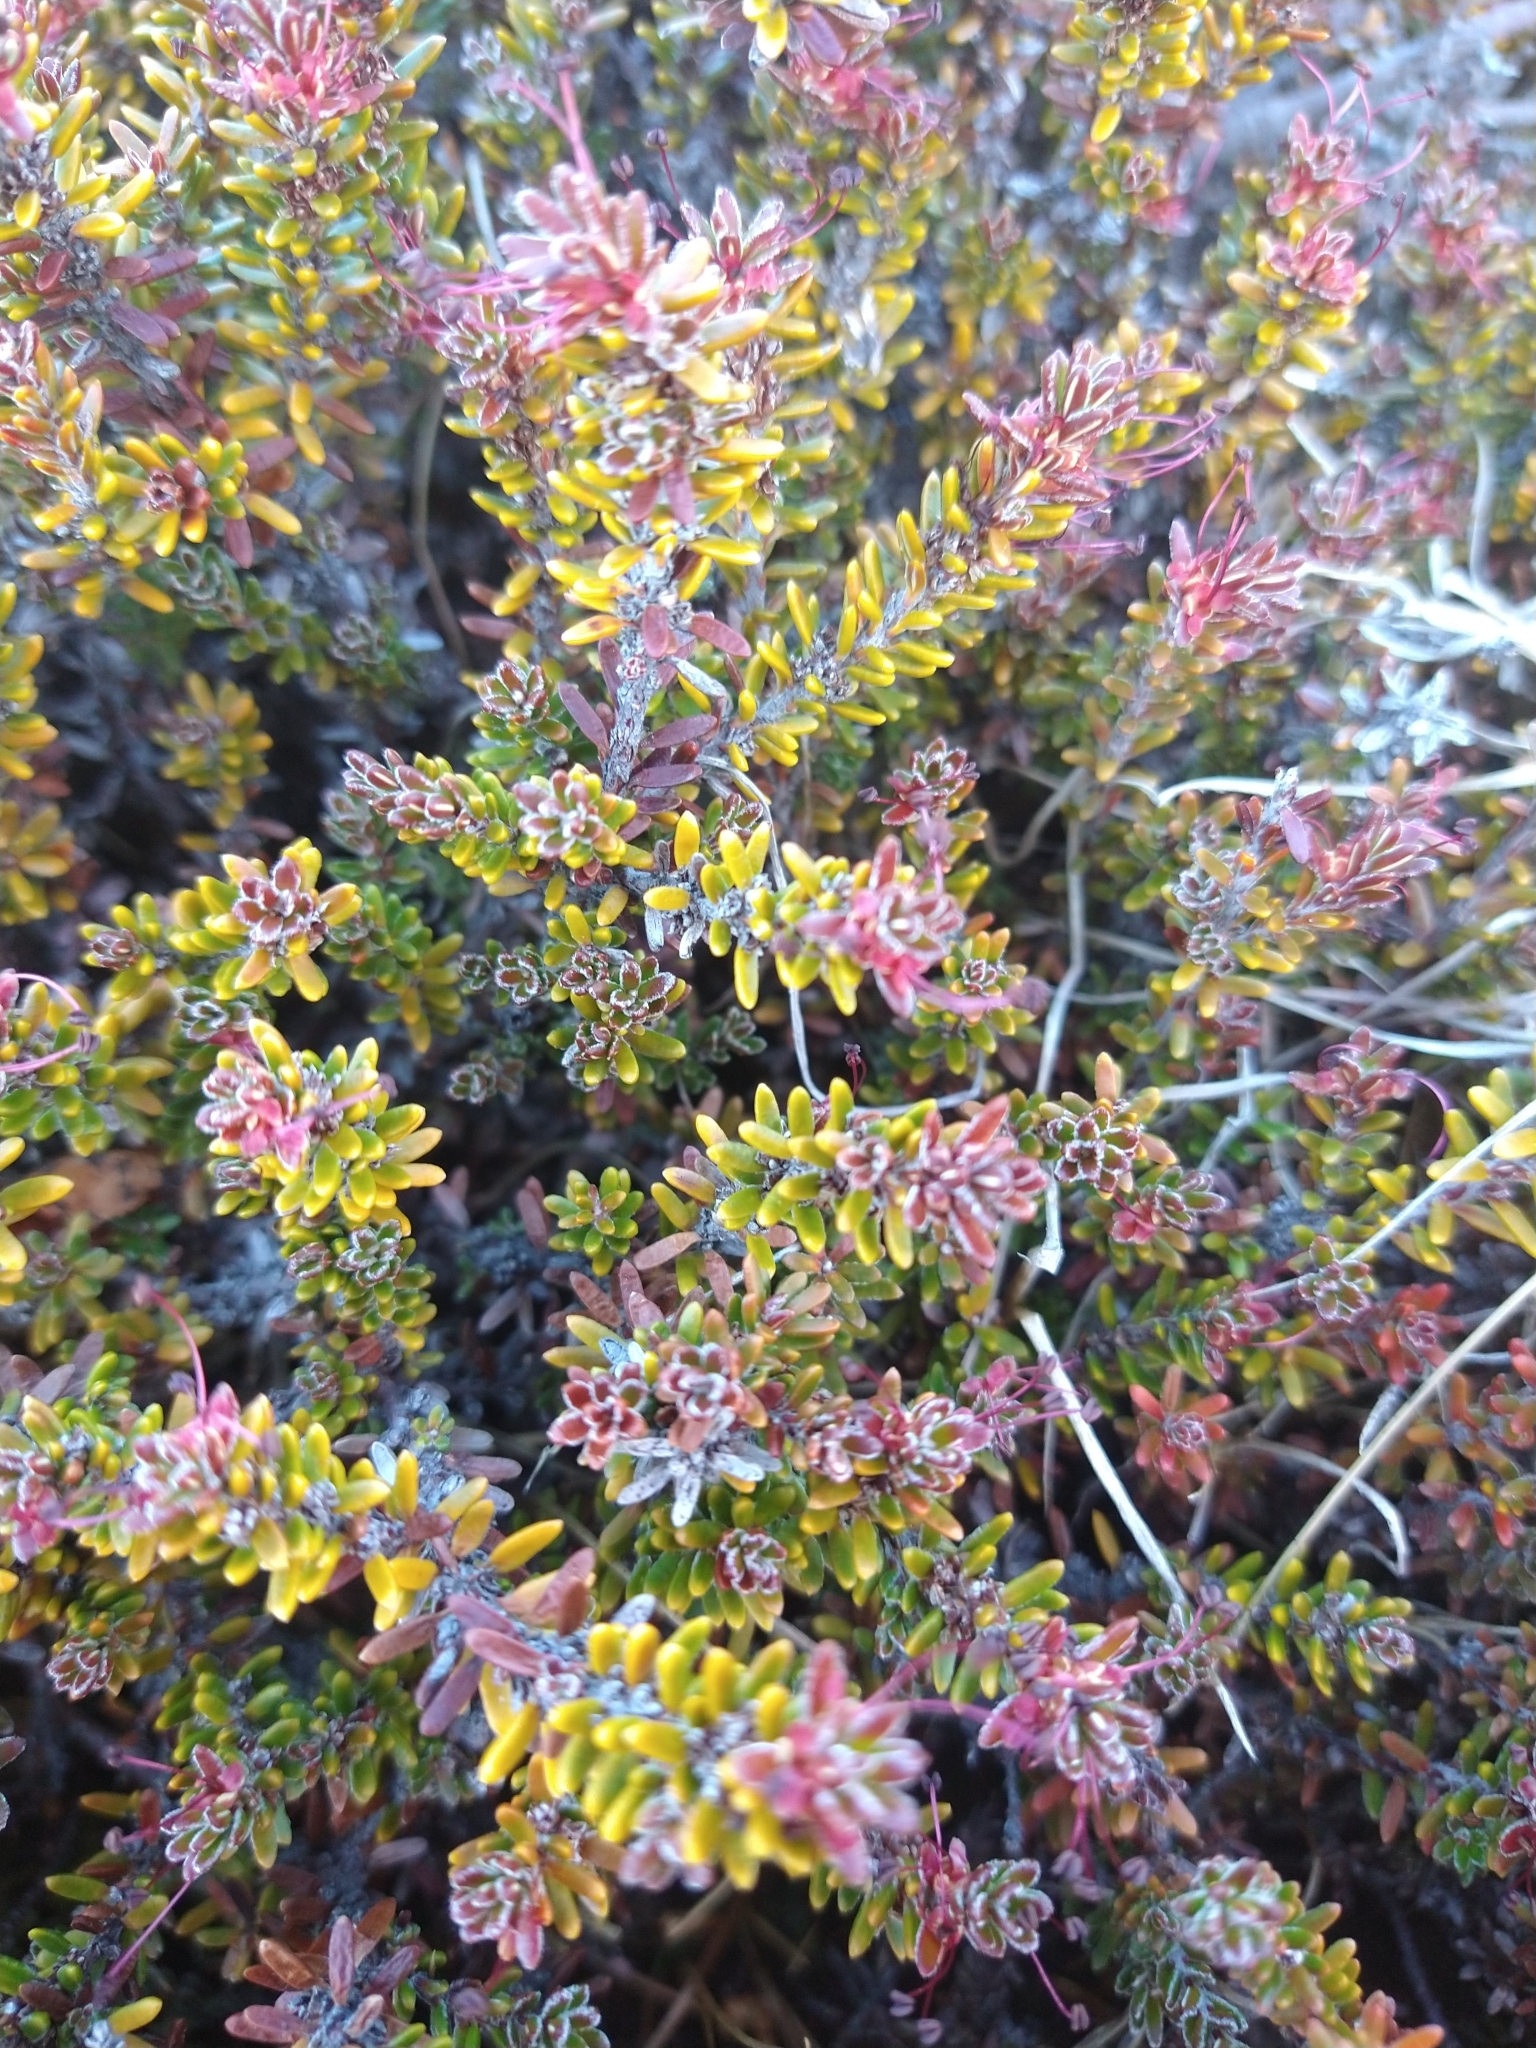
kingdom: Plantae
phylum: Tracheophyta
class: Magnoliopsida
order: Ericales
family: Ericaceae
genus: Empetrum
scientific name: Empetrum rubrum
